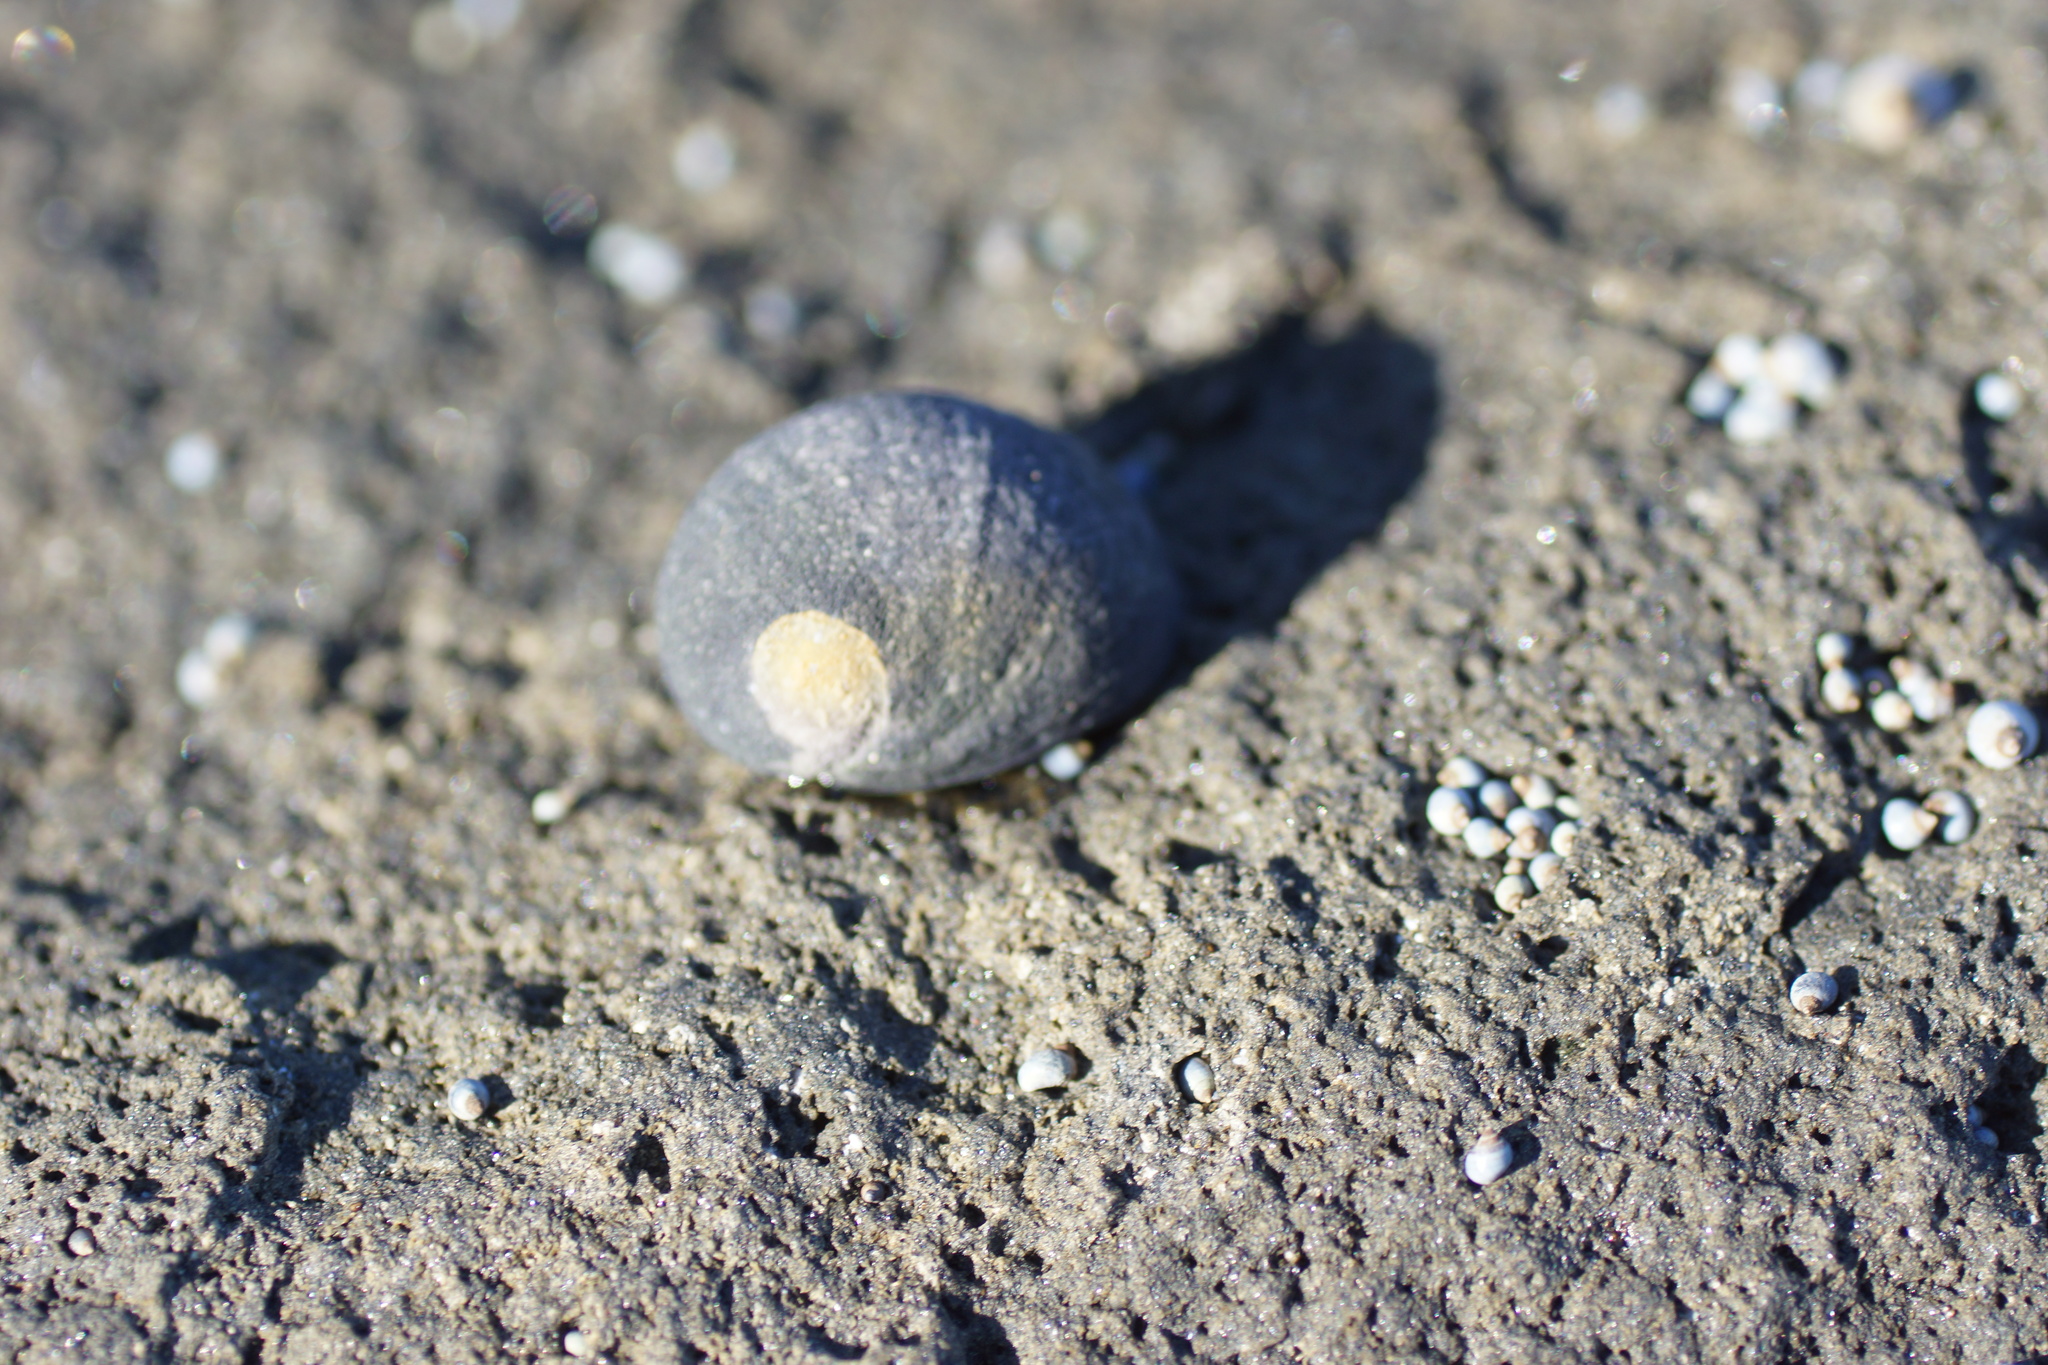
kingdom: Animalia
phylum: Mollusca
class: Gastropoda
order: Cycloneritida
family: Neritidae
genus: Nerita
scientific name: Nerita atramentosa
